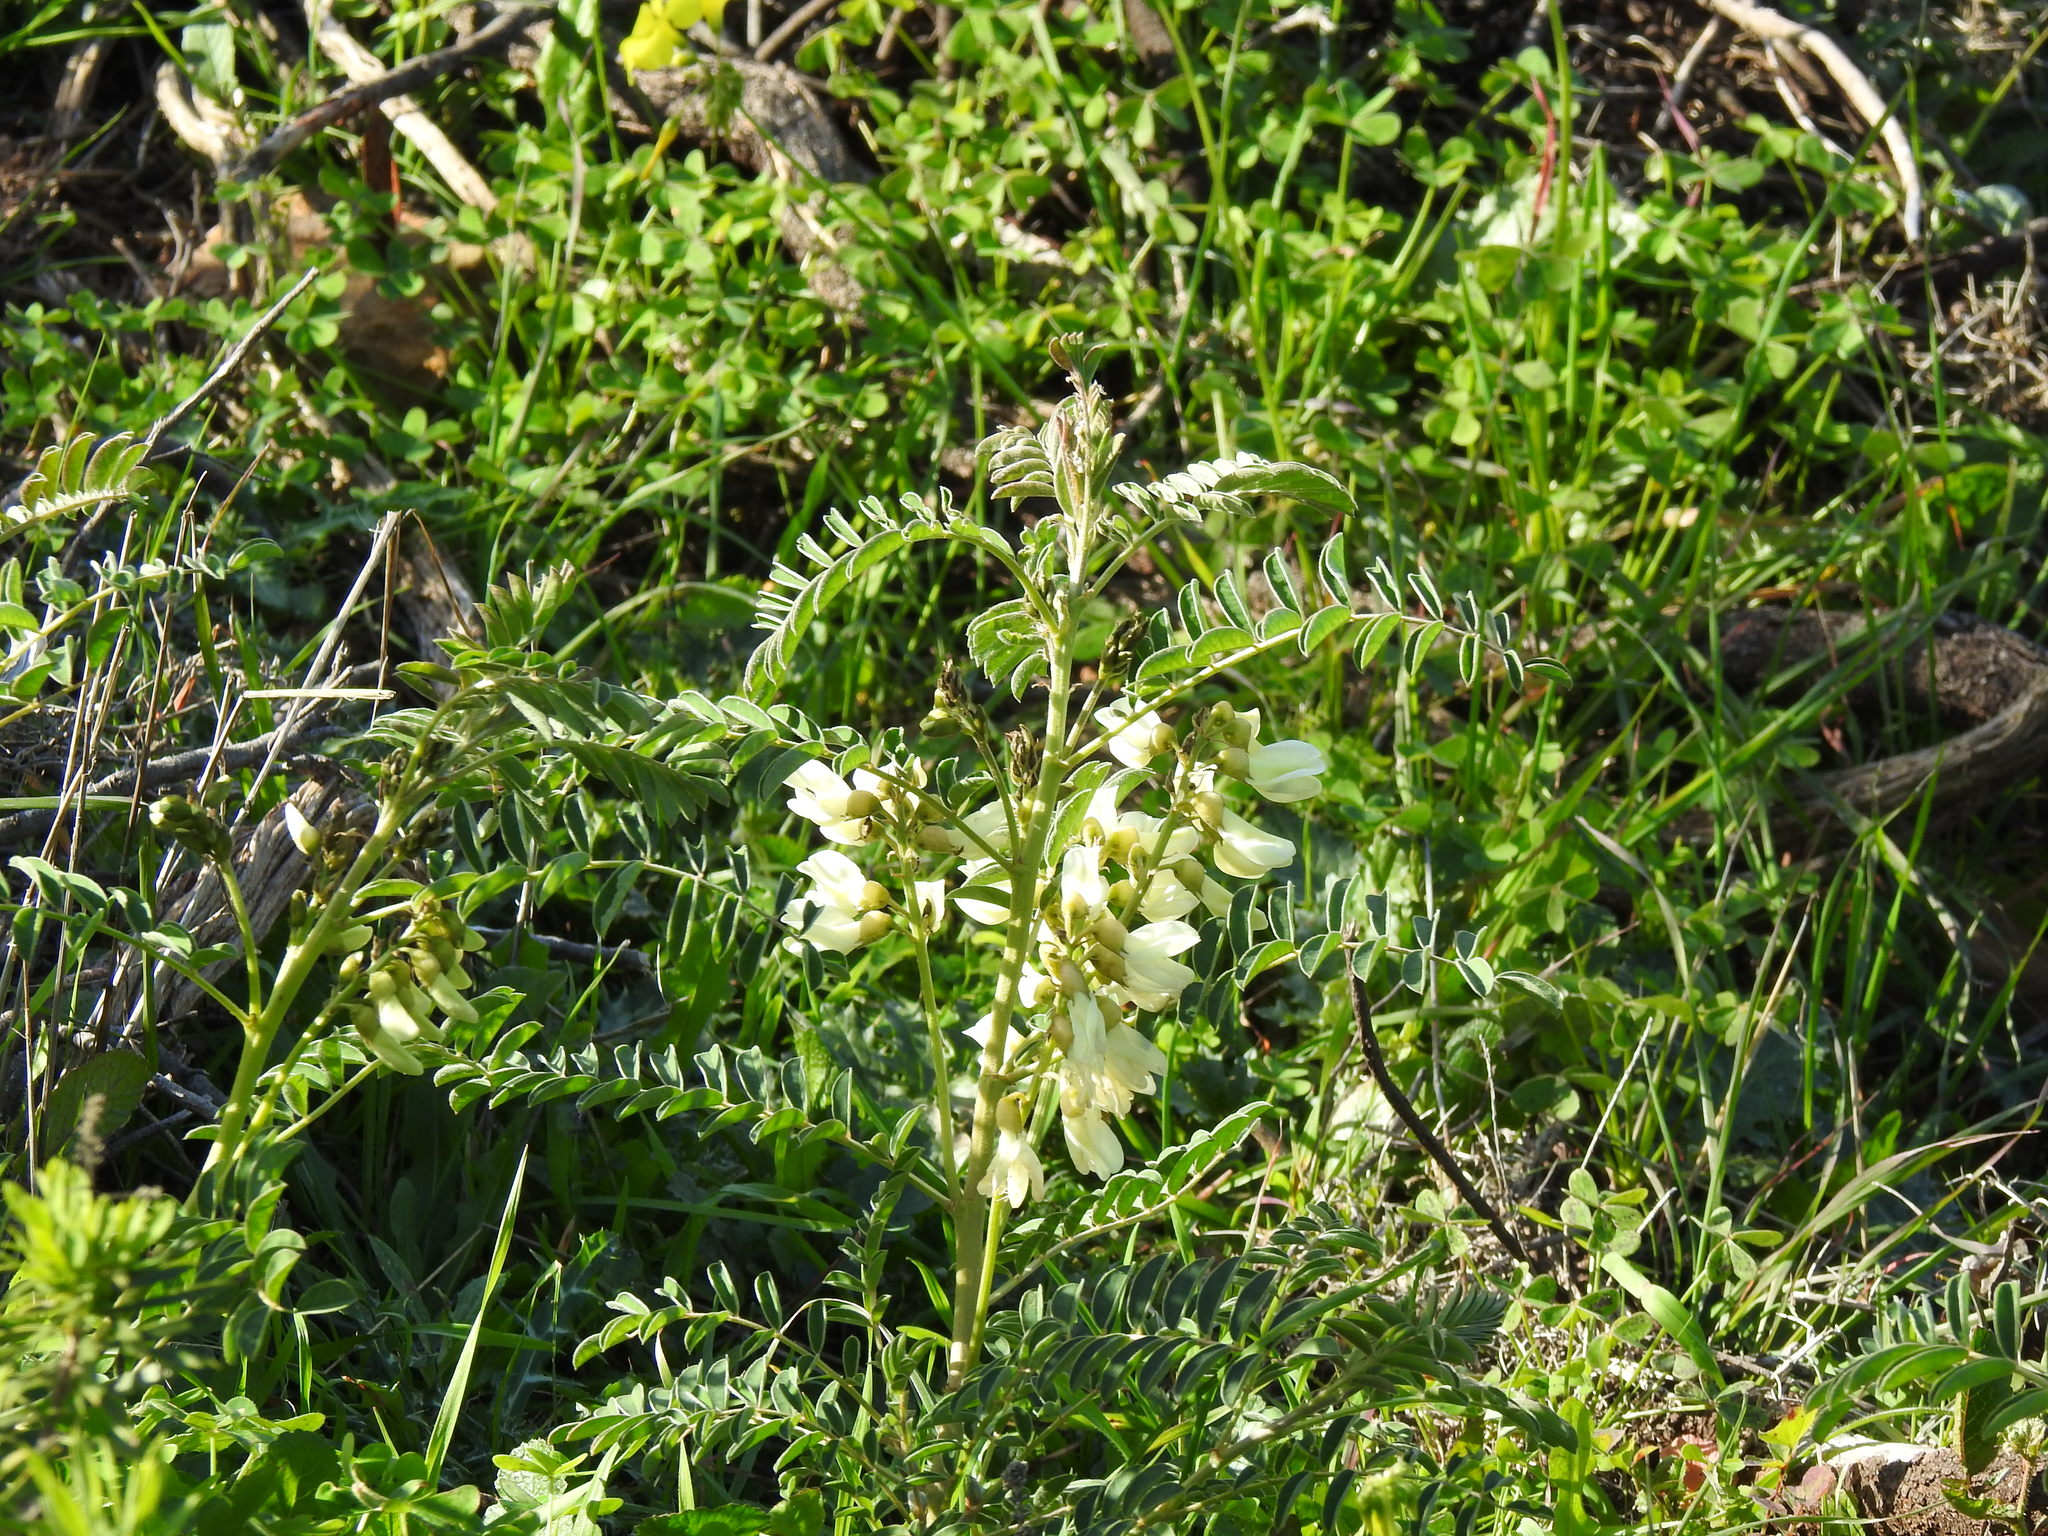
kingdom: Plantae
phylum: Tracheophyta
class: Magnoliopsida
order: Fabales
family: Fabaceae
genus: Erophaca
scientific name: Erophaca baetica
